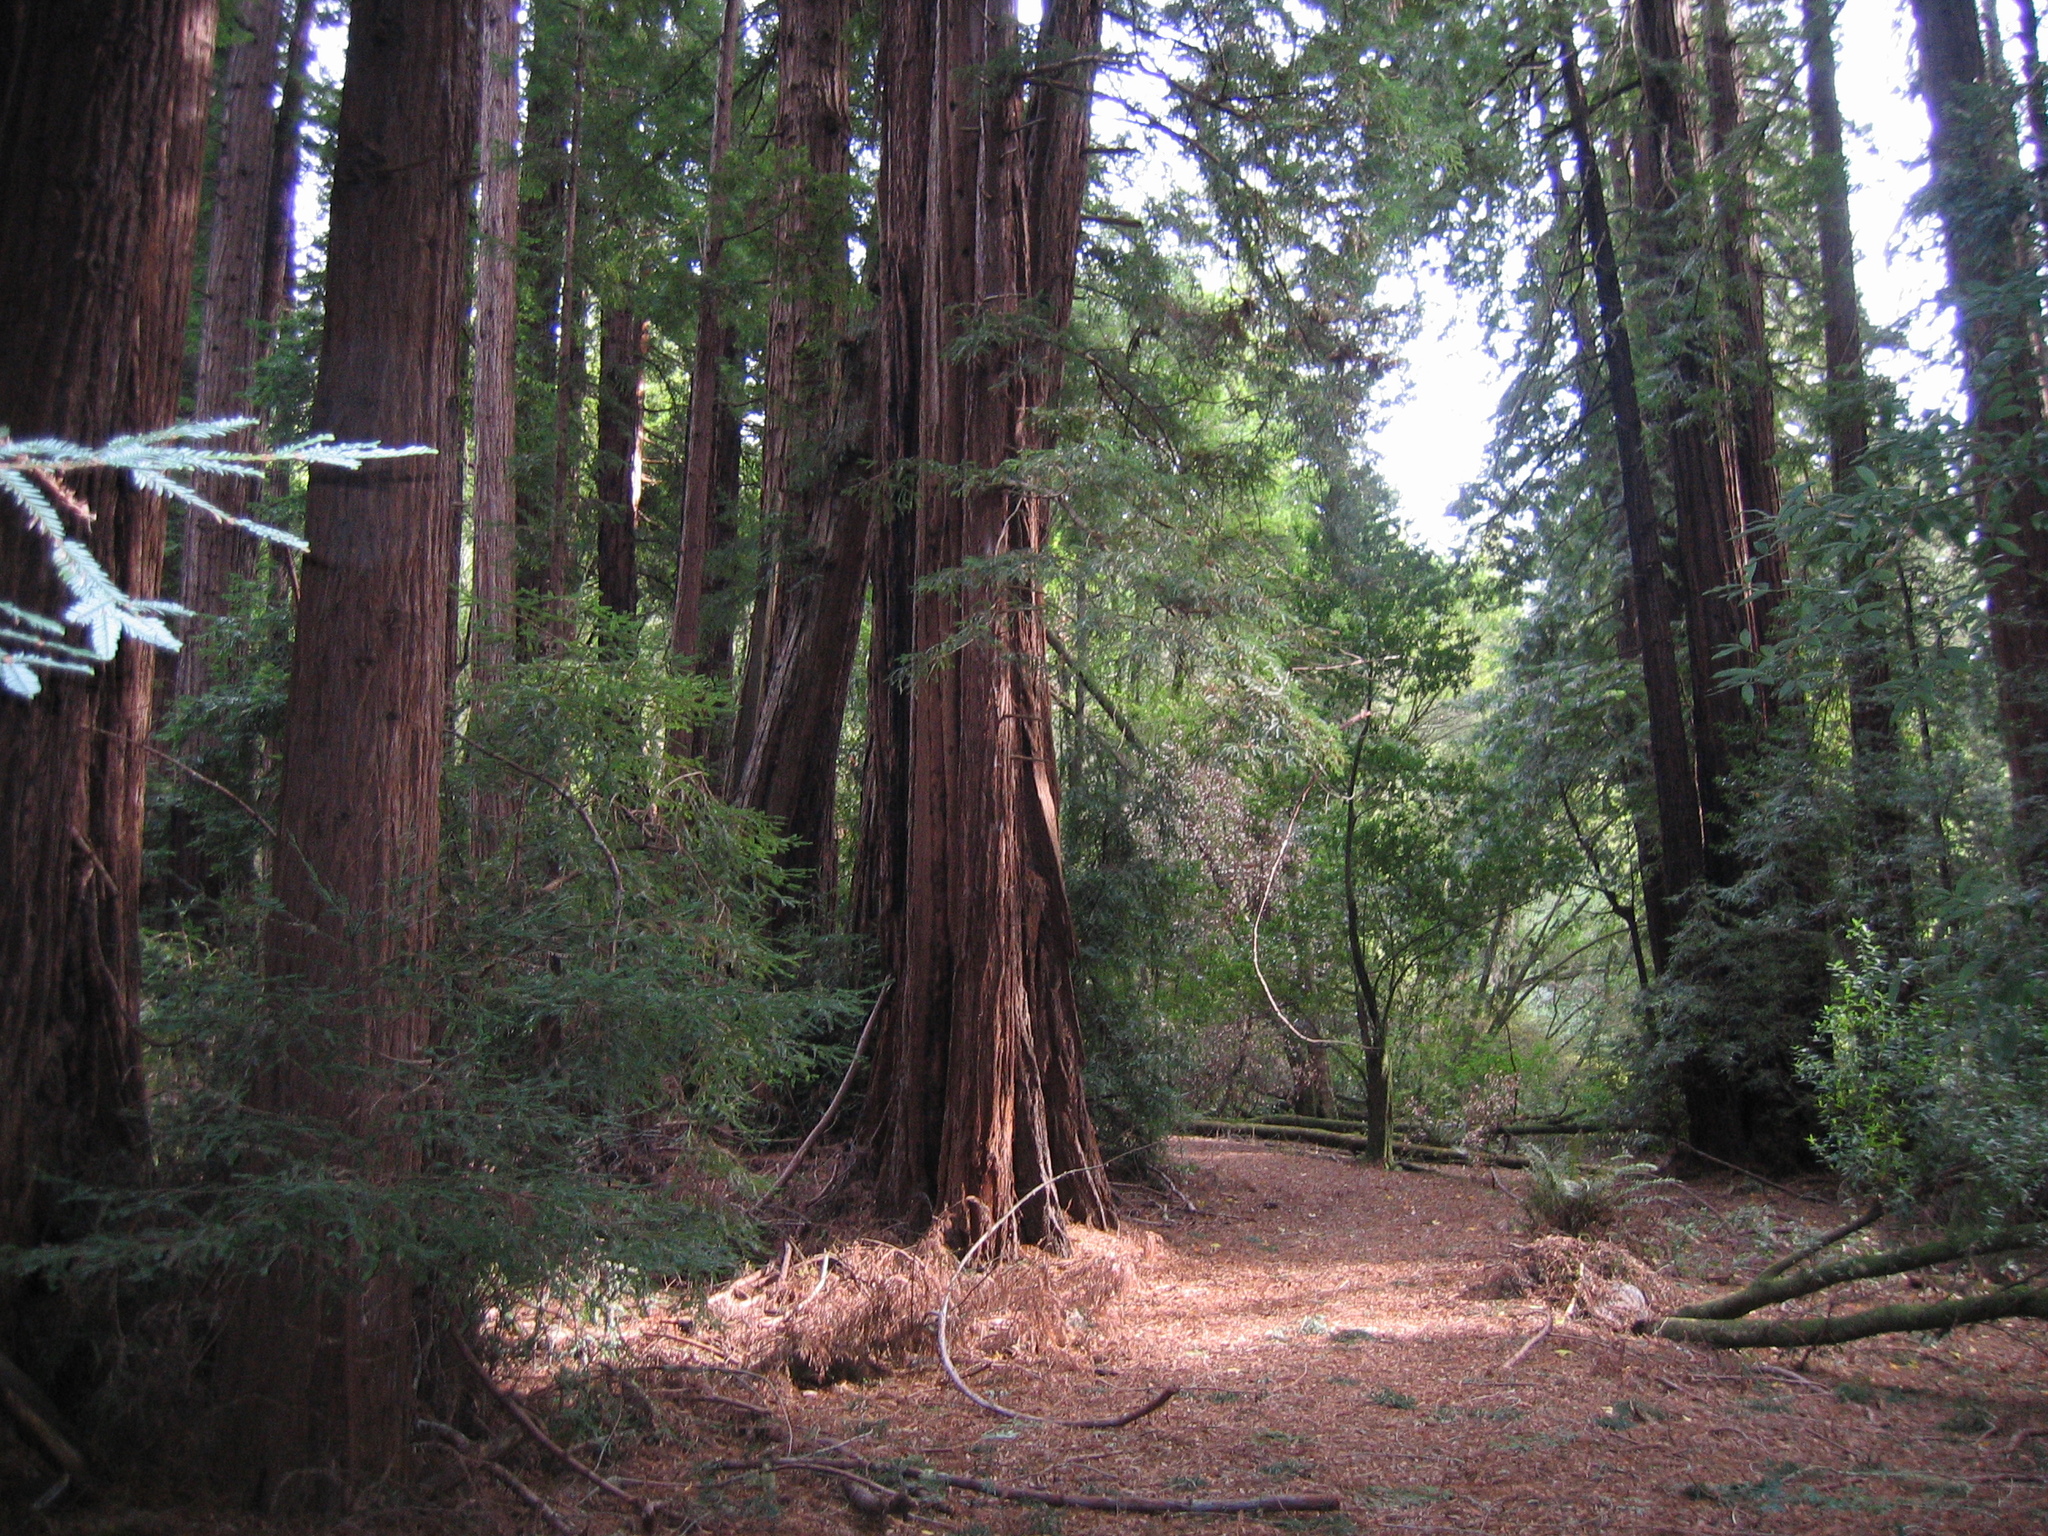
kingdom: Plantae
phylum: Tracheophyta
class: Pinopsida
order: Pinales
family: Cupressaceae
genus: Sequoia
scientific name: Sequoia sempervirens
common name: Coast redwood
